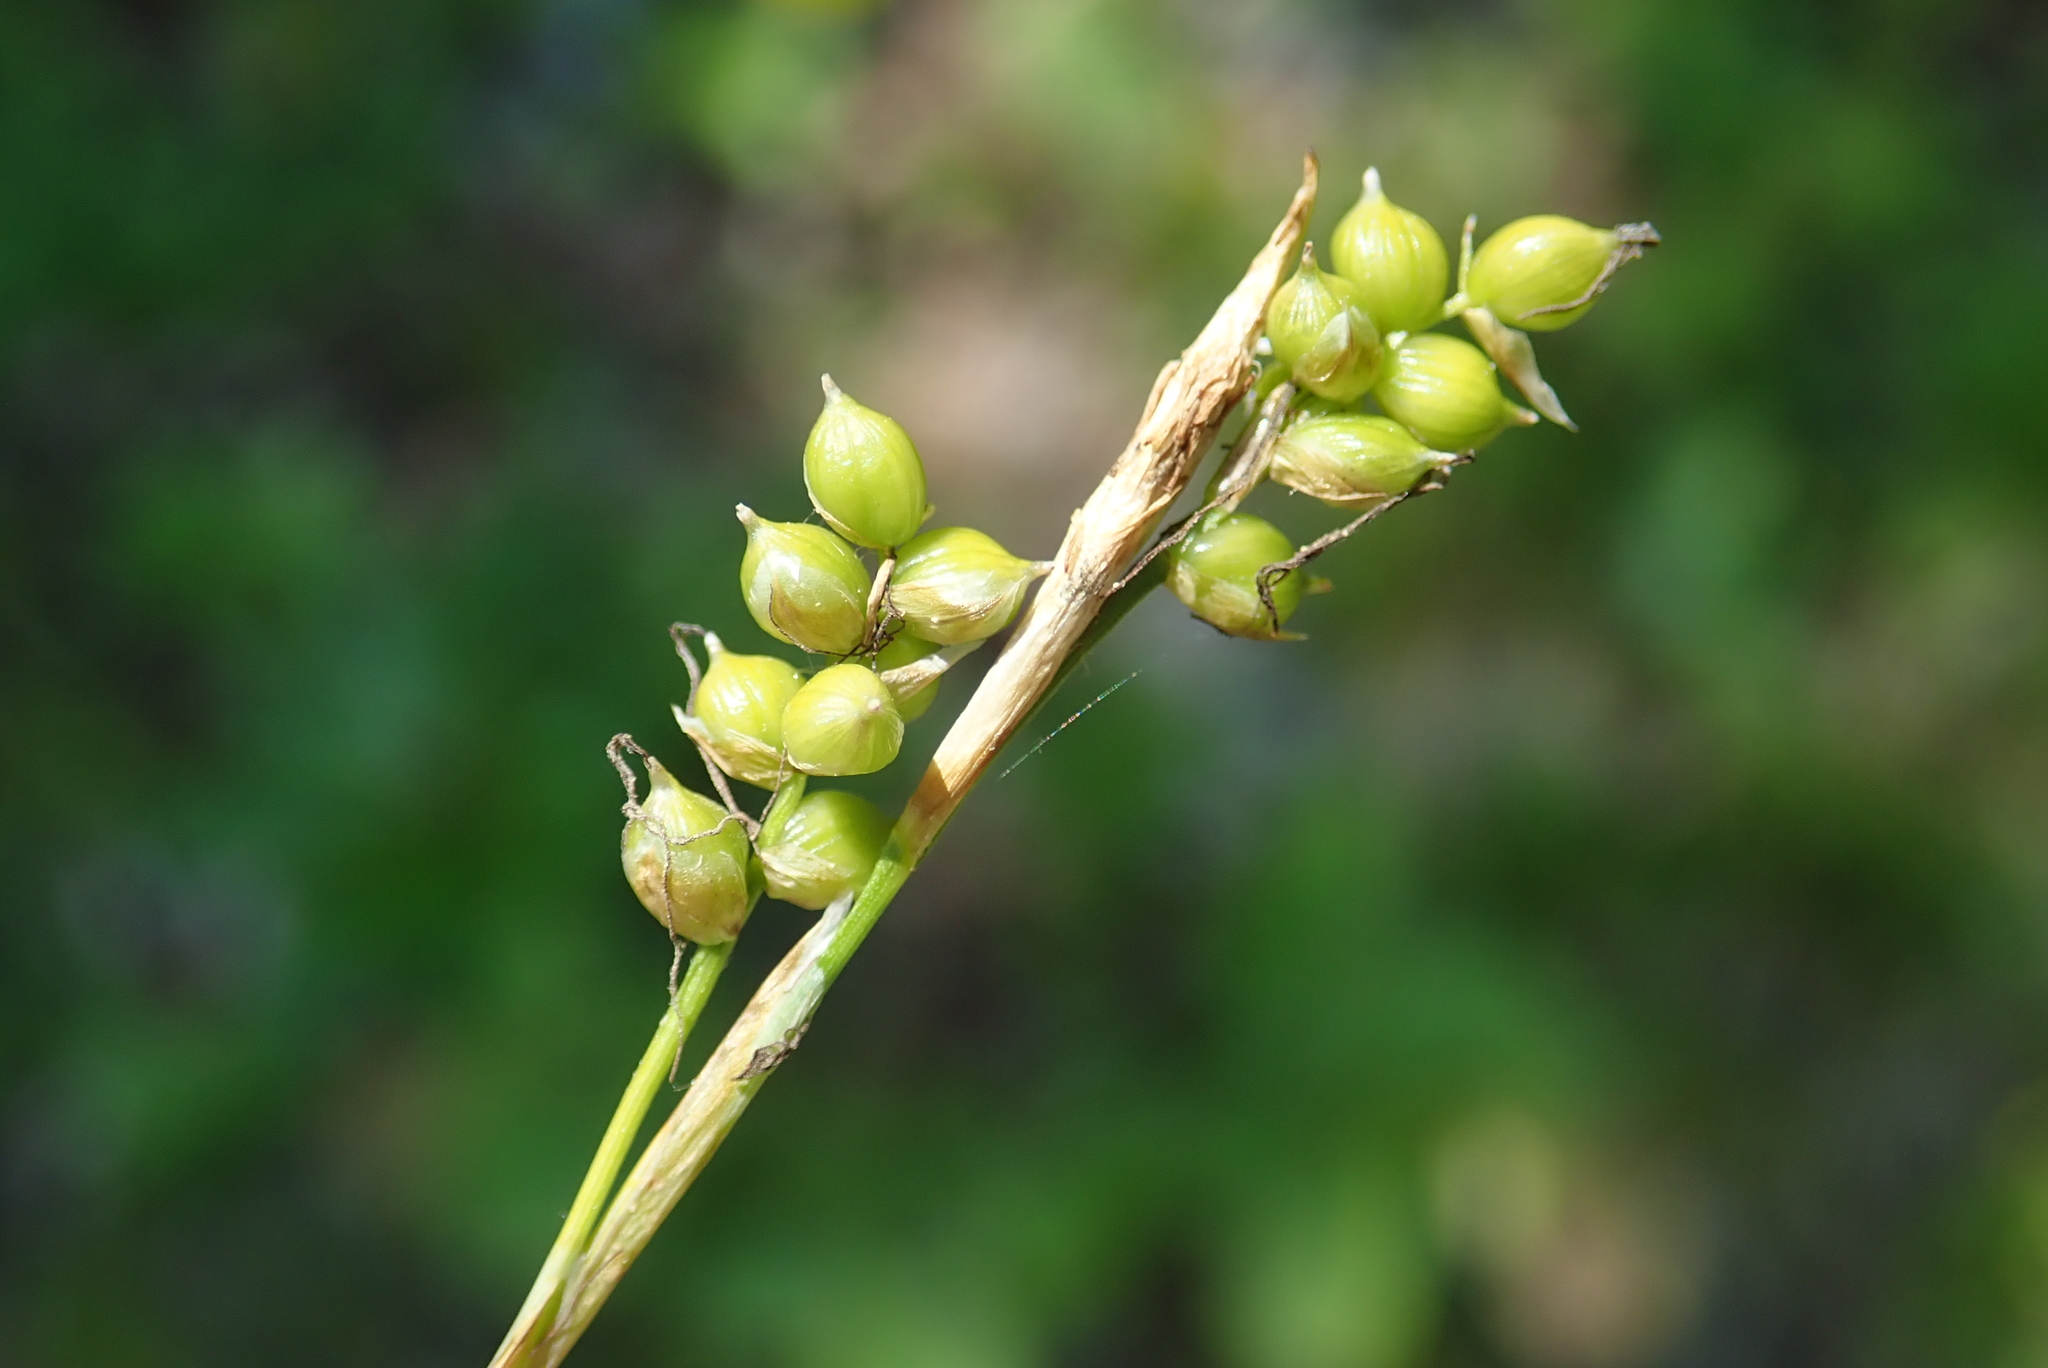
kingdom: Plantae
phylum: Tracheophyta
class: Liliopsida
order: Poales
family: Cyperaceae
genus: Carex
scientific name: Carex alba
